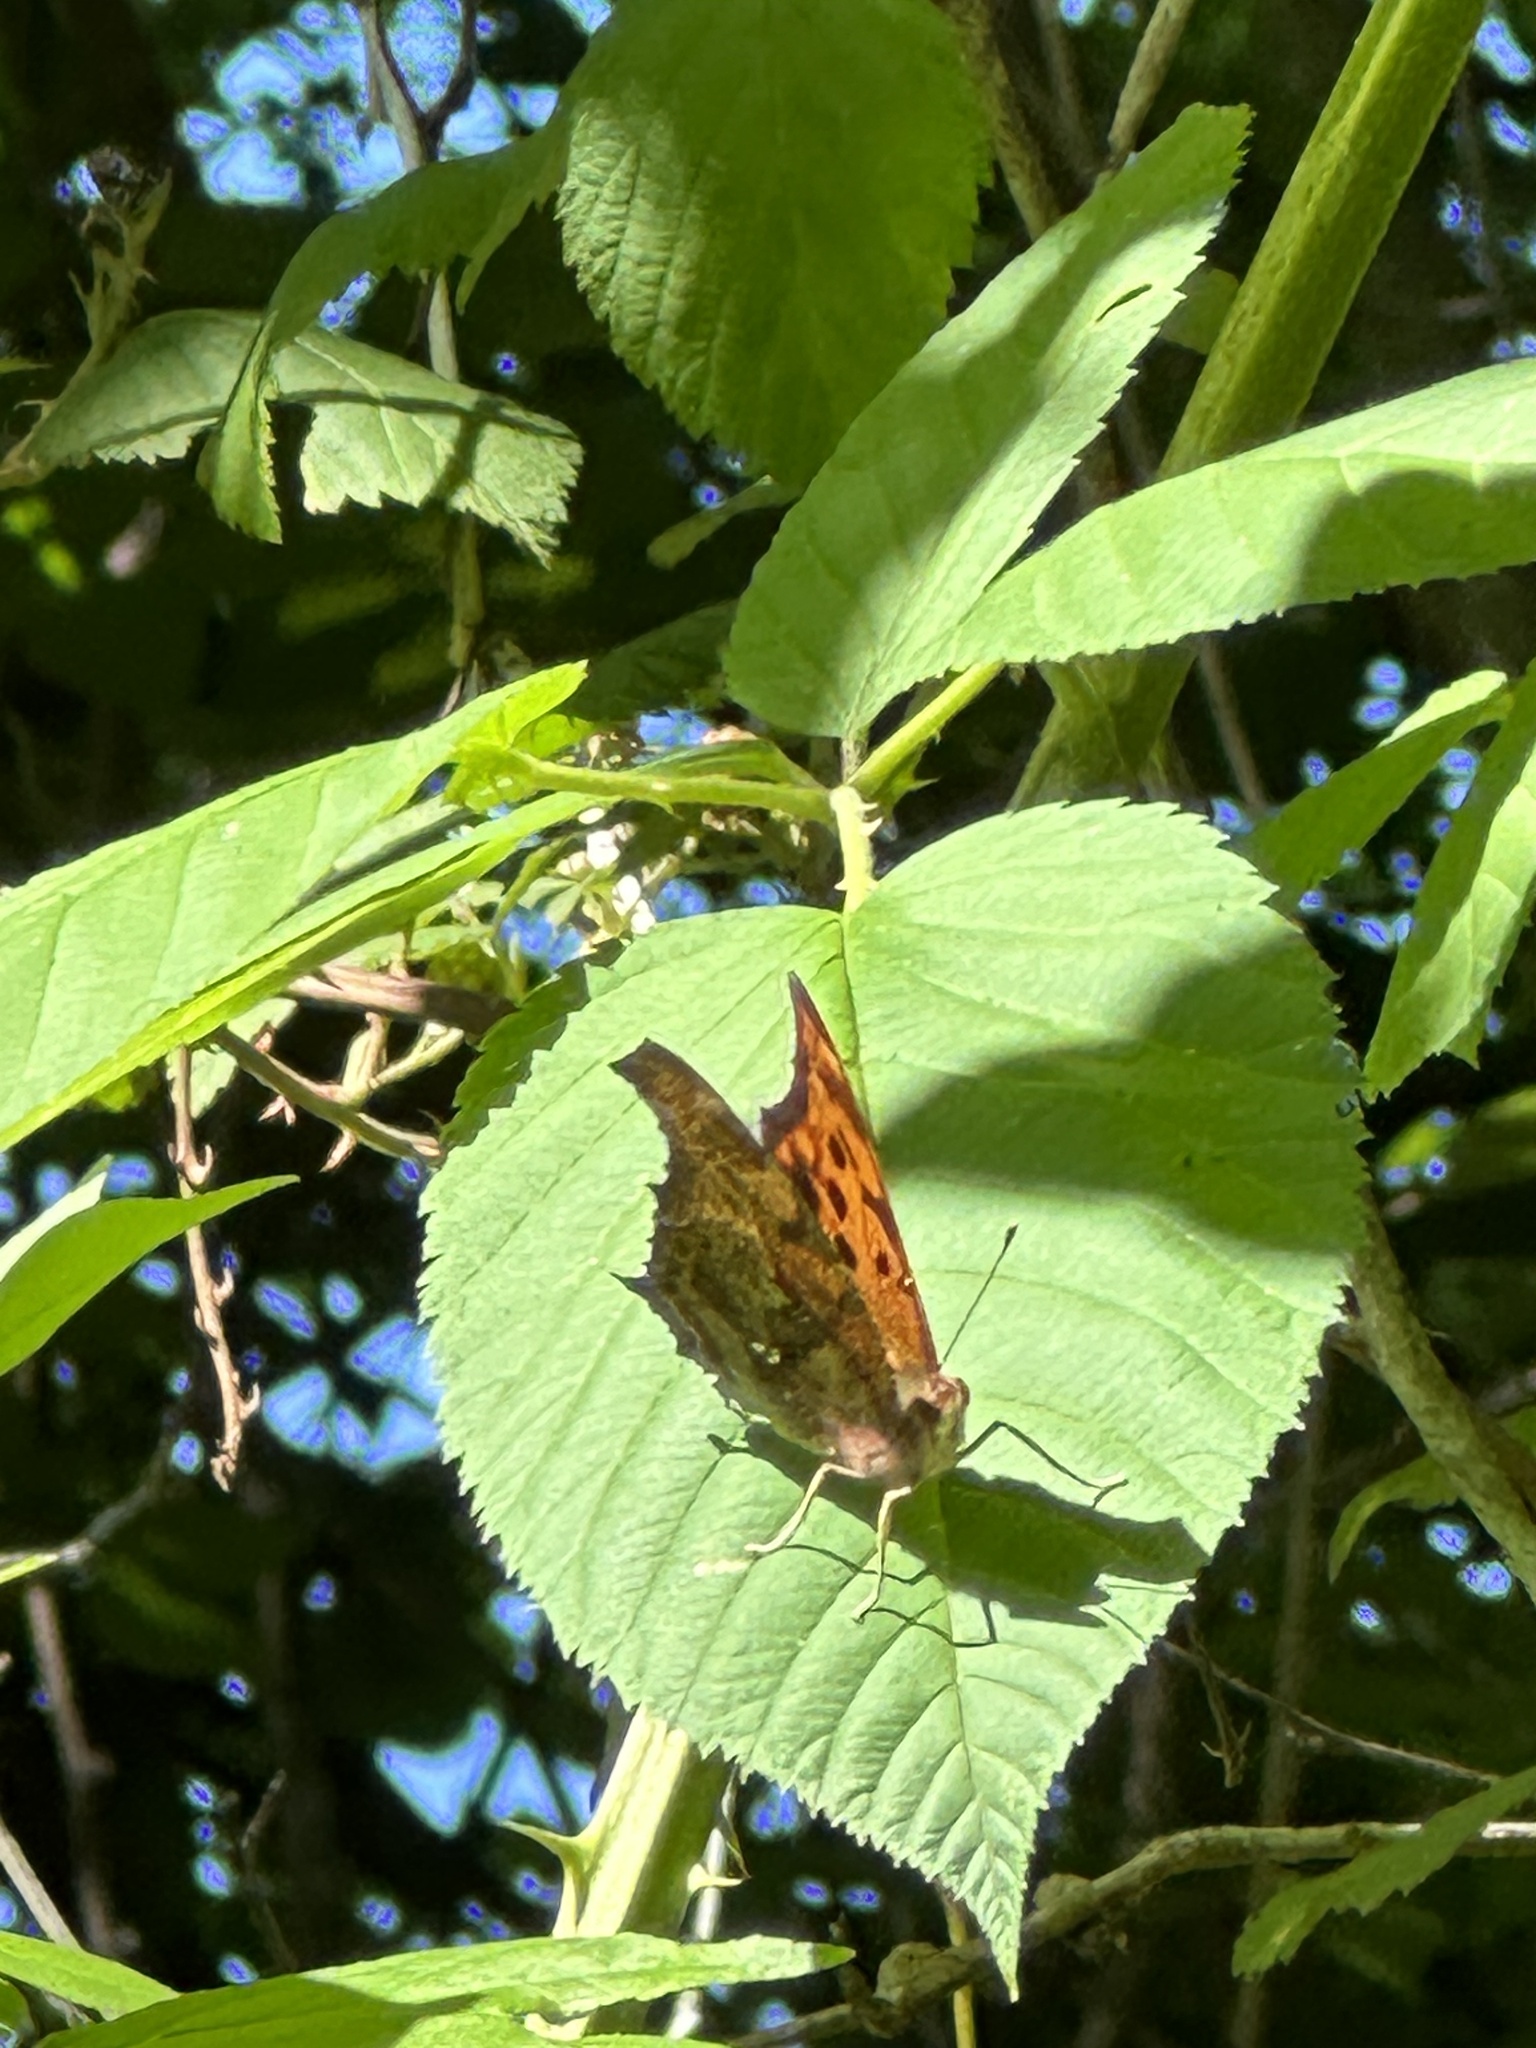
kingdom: Animalia
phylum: Arthropoda
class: Insecta
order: Lepidoptera
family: Nymphalidae
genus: Polygonia
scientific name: Polygonia interrogationis
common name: Question mark
